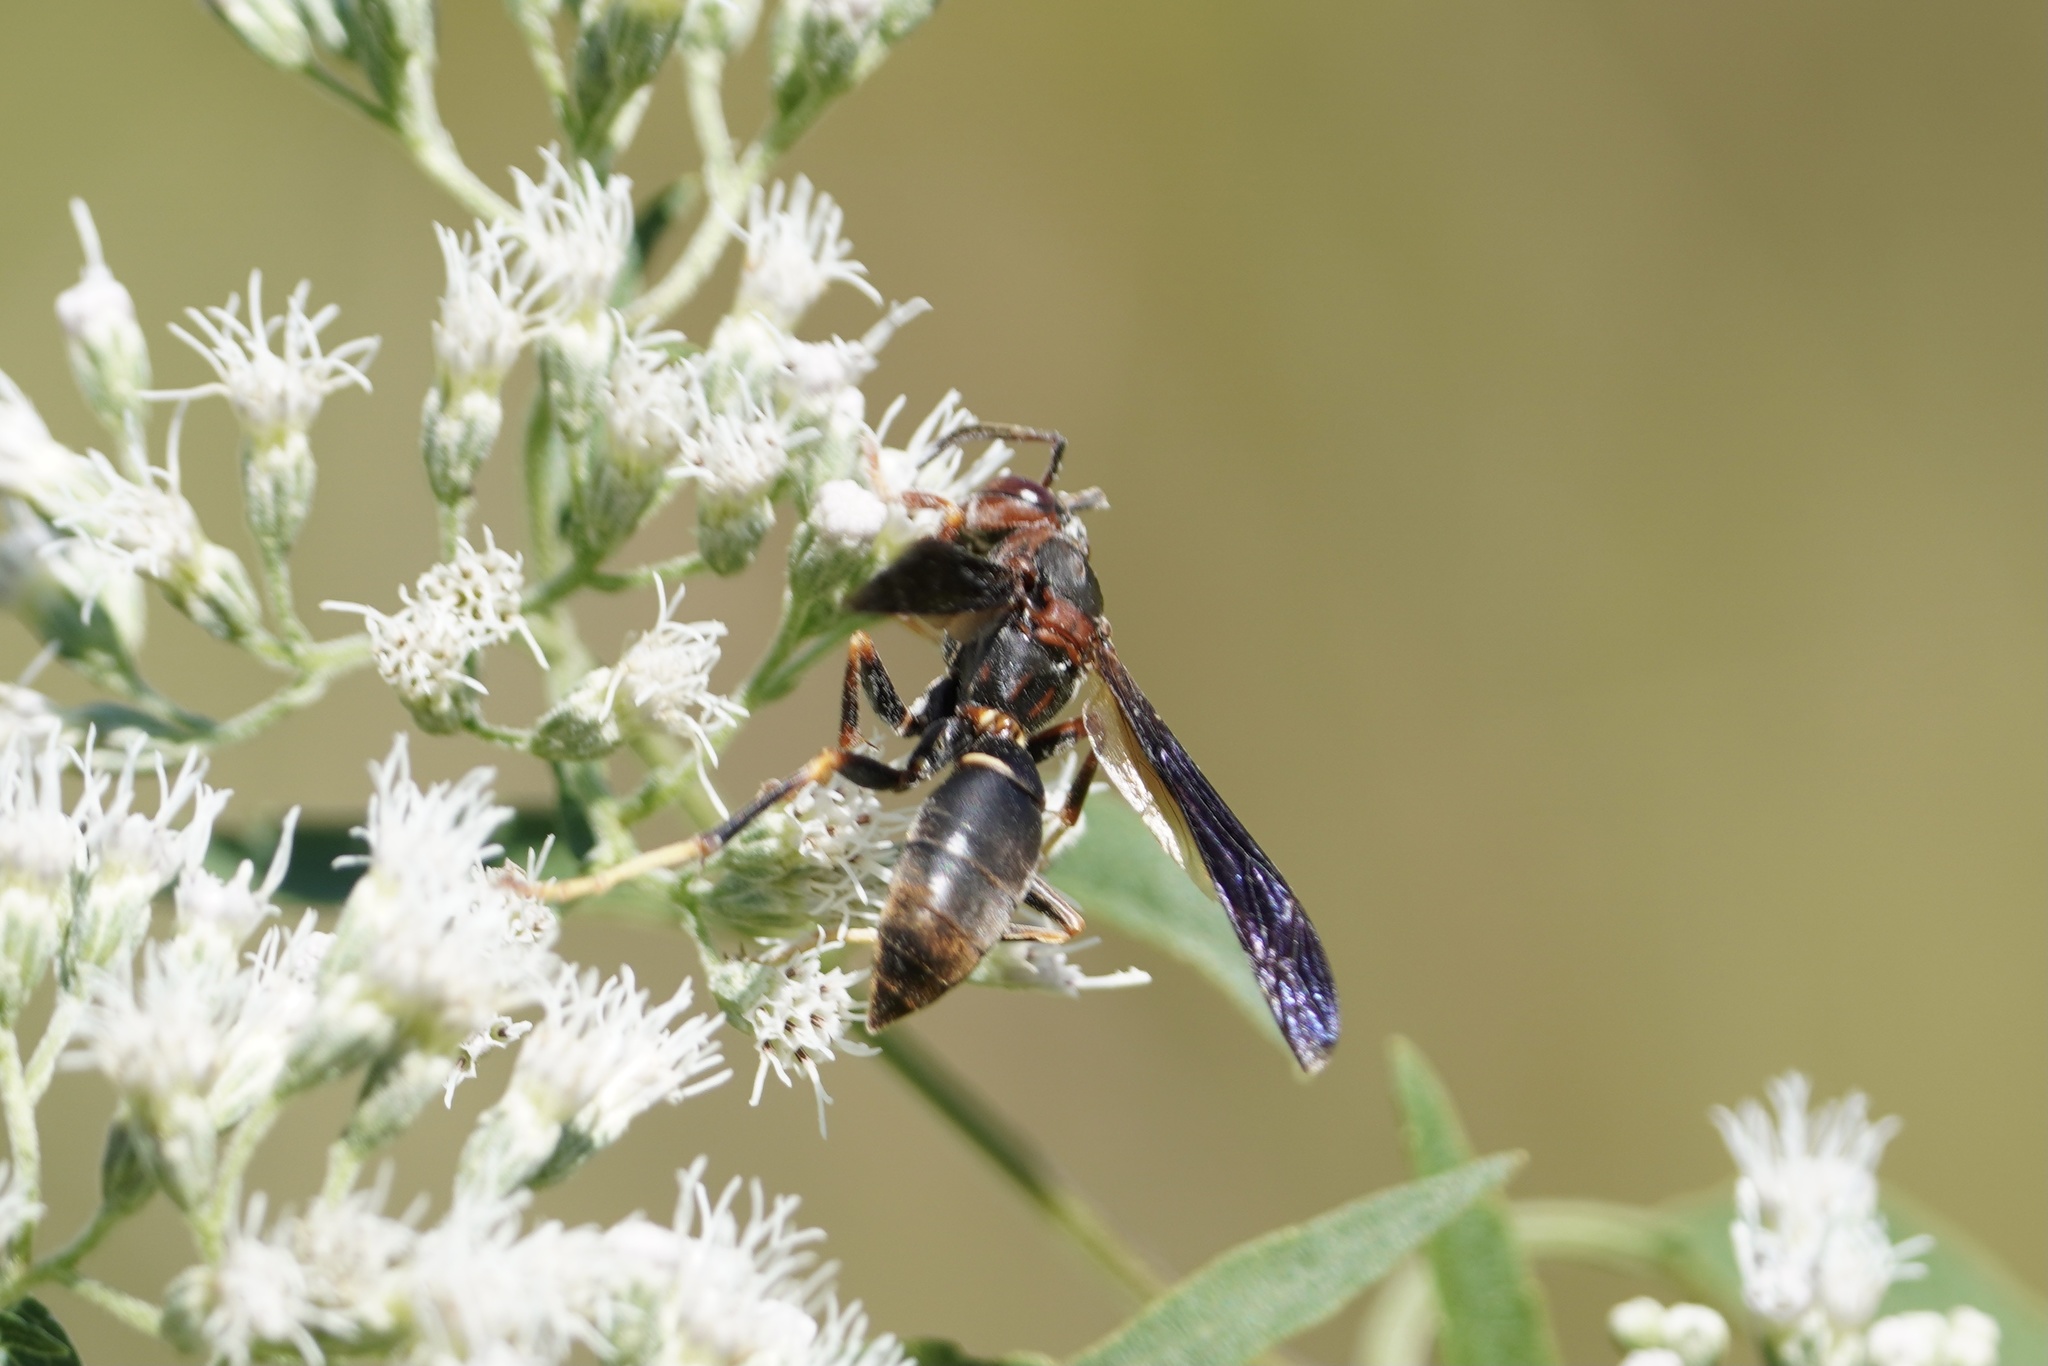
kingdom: Animalia
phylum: Arthropoda
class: Insecta
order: Hymenoptera
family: Eumenidae
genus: Polistes
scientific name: Polistes metricus
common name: Metric paper wasp
